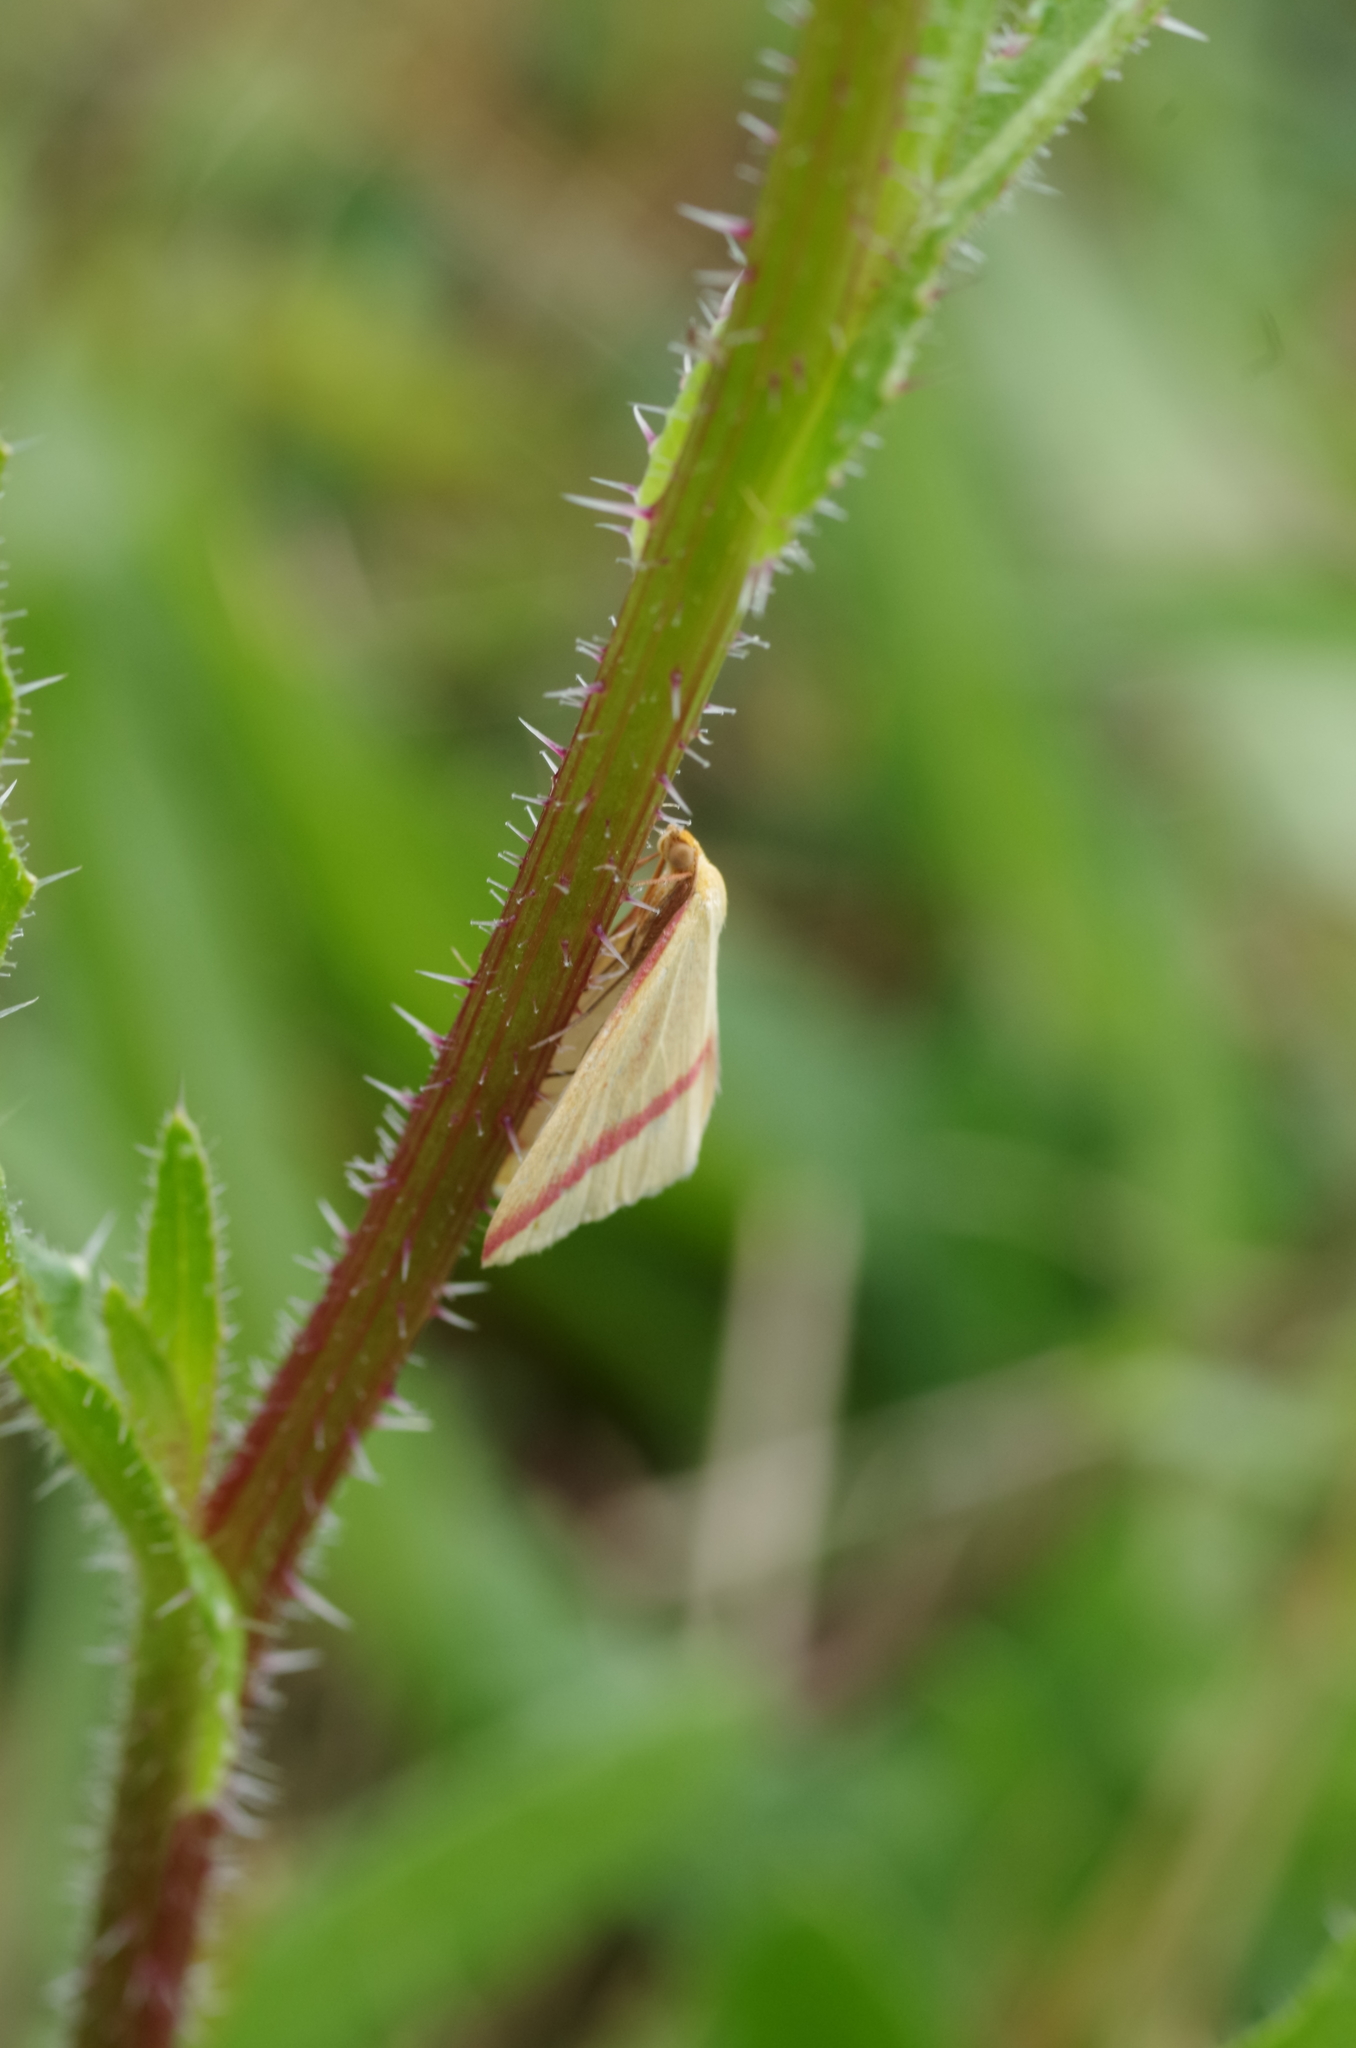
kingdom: Animalia
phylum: Arthropoda
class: Insecta
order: Lepidoptera
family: Geometridae
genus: Rhodometra
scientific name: Rhodometra sacraria
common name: Vestal
